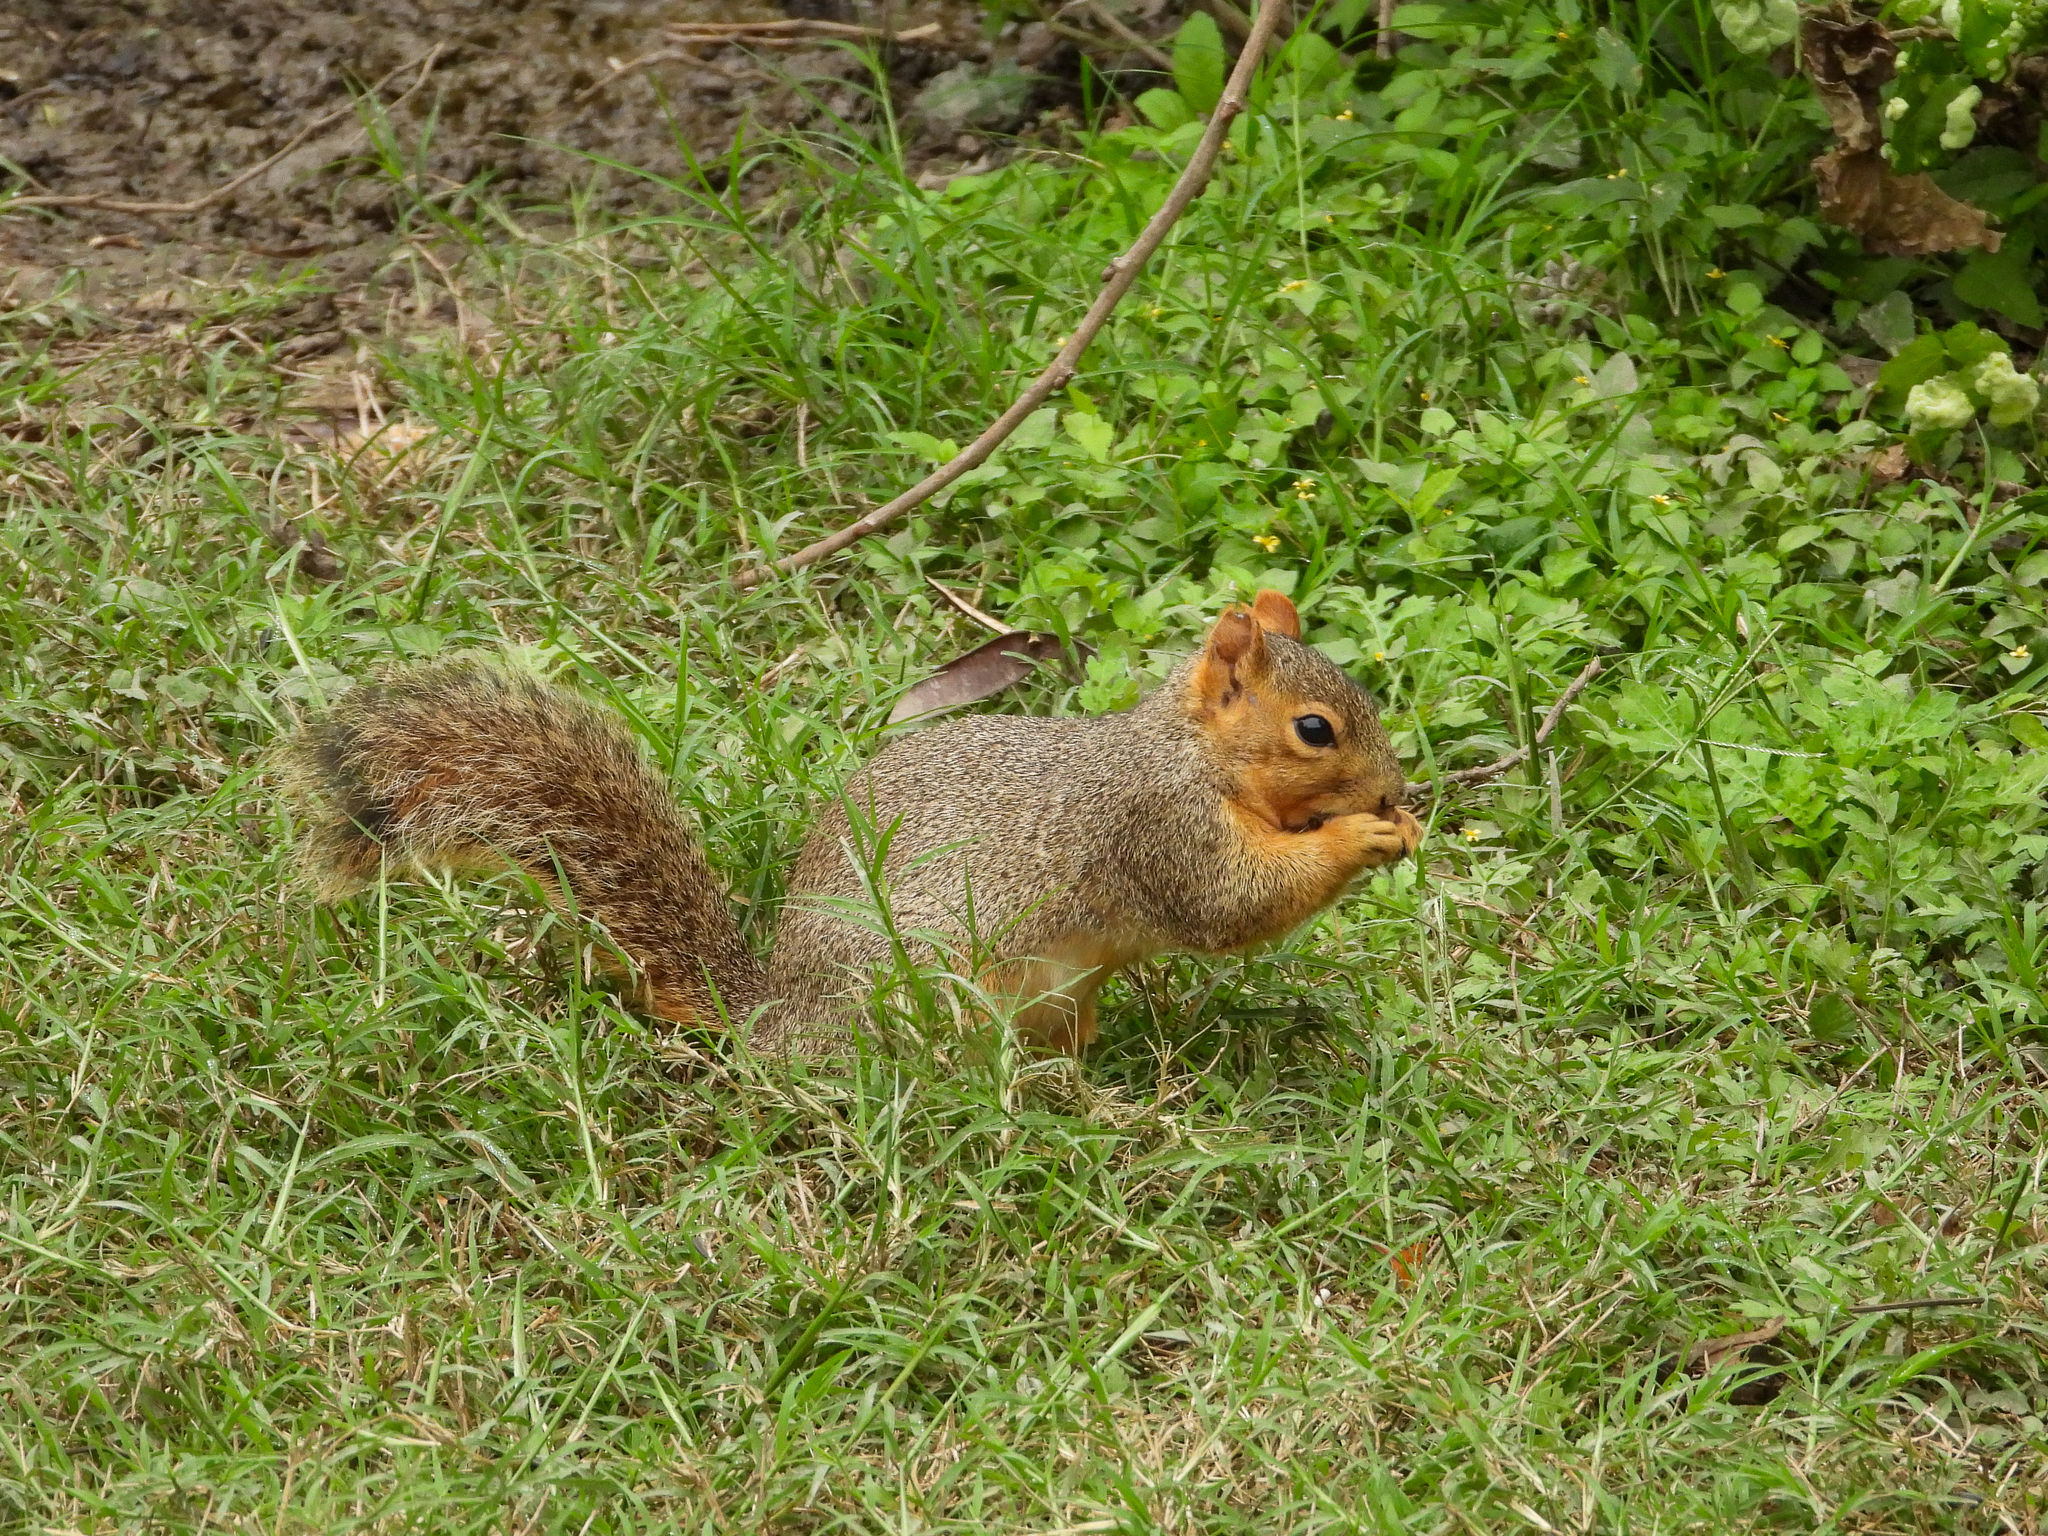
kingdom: Animalia
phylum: Chordata
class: Mammalia
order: Rodentia
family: Sciuridae
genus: Sciurus
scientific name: Sciurus niger
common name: Fox squirrel
